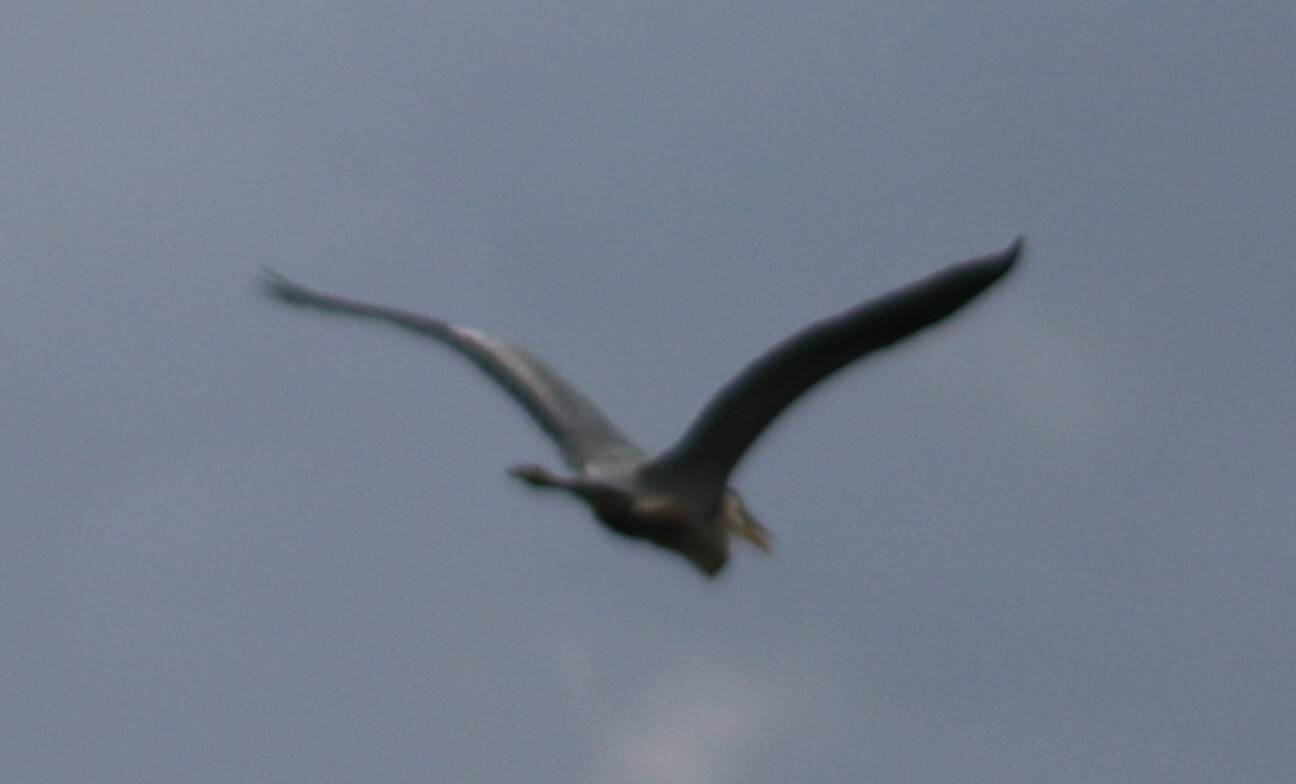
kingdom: Animalia
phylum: Chordata
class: Aves
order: Pelecaniformes
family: Ardeidae
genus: Ardea
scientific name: Ardea herodias
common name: Great blue heron
